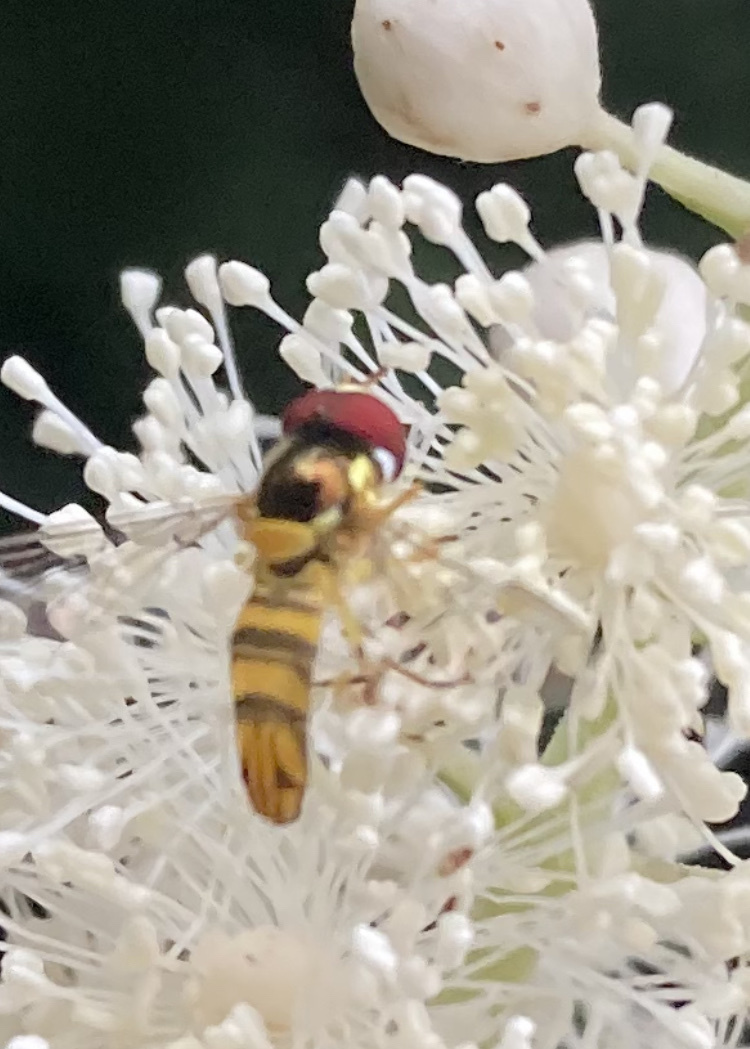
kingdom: Animalia
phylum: Arthropoda
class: Insecta
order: Diptera
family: Syrphidae
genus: Allograpta
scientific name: Allograpta obliqua
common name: Common oblique syrphid
